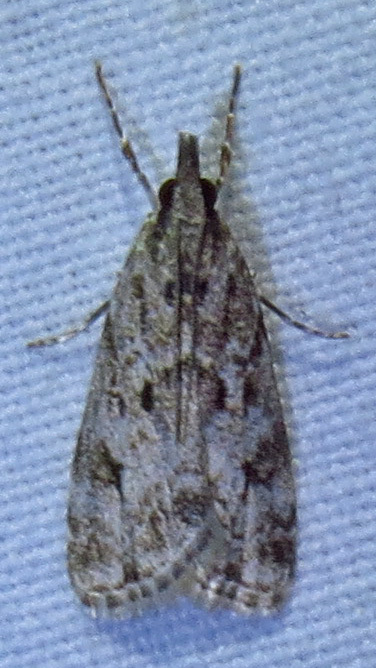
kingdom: Animalia
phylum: Arthropoda
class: Insecta
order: Lepidoptera
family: Crambidae
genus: Eudonia
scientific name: Eudonia heterosalis
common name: Mcdunnough's eudonia
